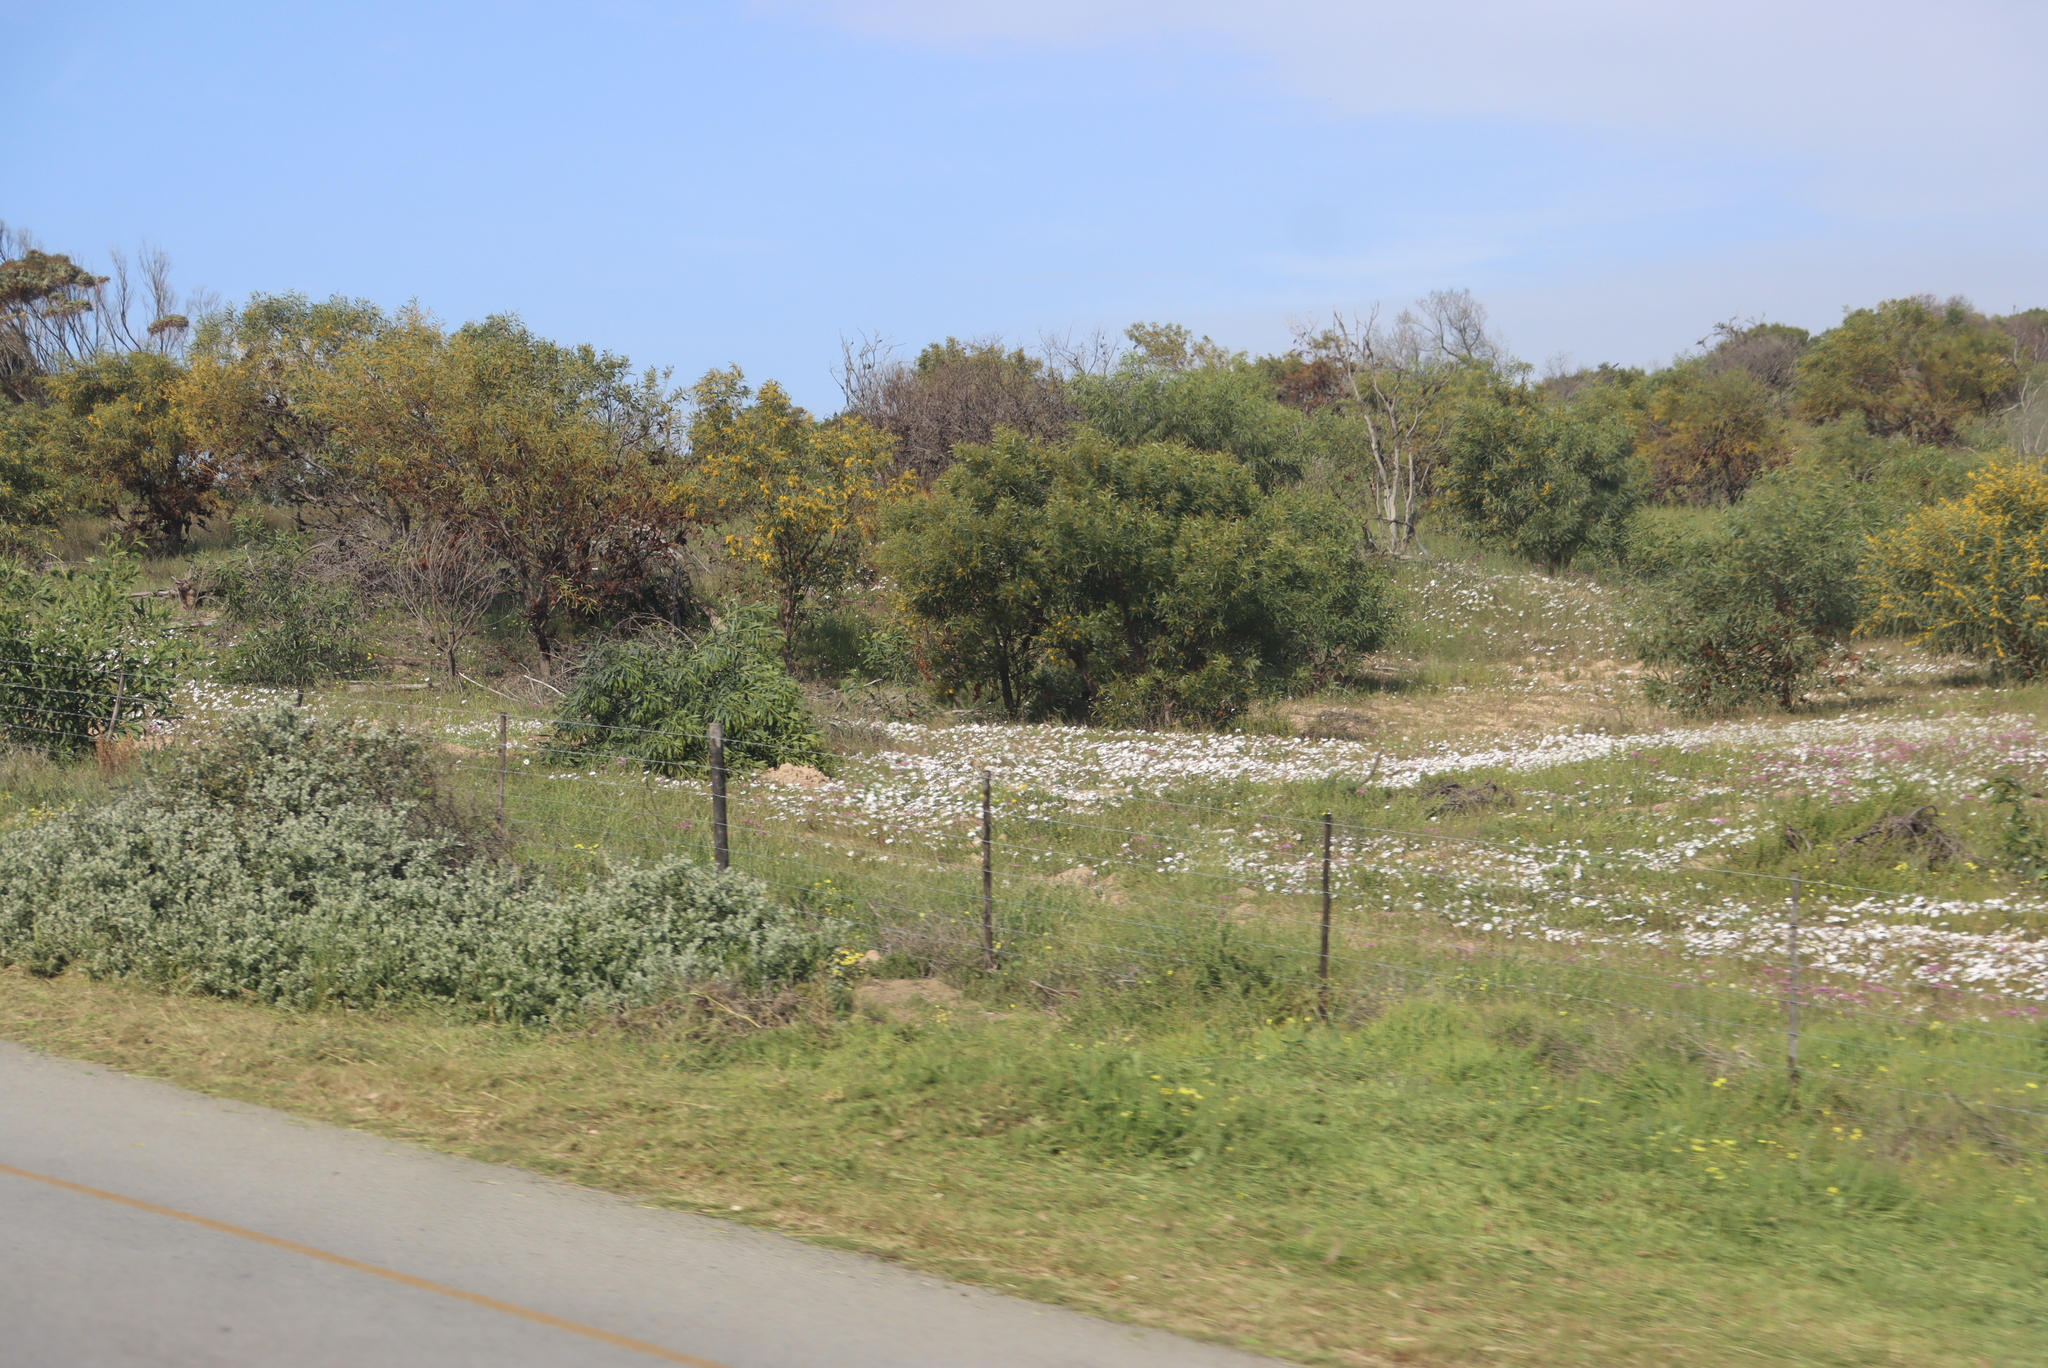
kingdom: Plantae
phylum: Tracheophyta
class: Magnoliopsida
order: Fabales
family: Fabaceae
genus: Acacia
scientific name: Acacia saligna
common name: Orange wattle
